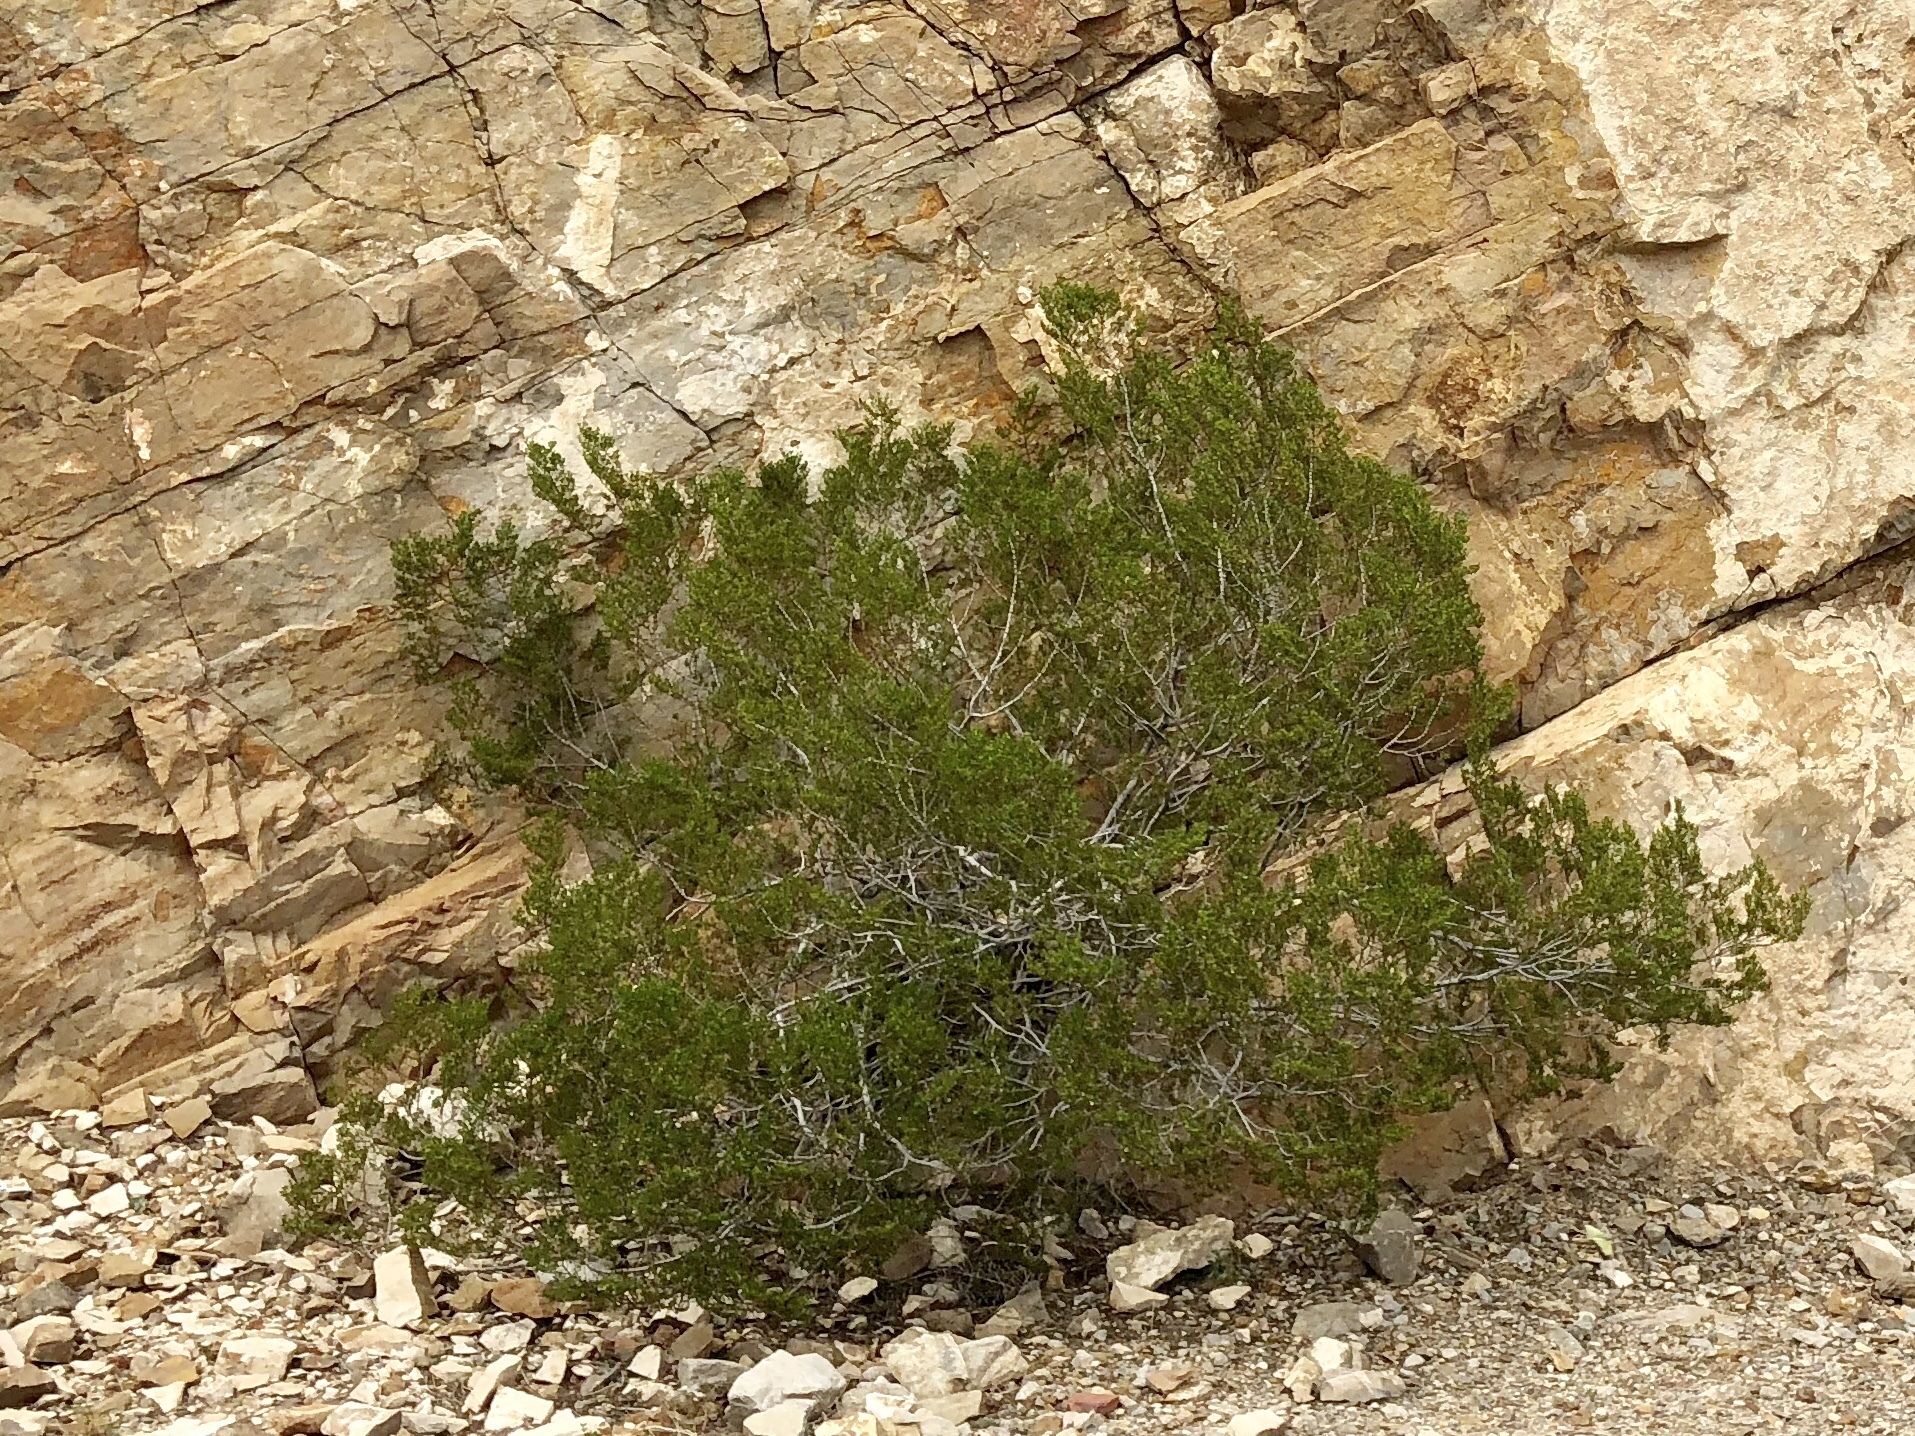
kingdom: Plantae
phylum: Tracheophyta
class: Magnoliopsida
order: Zygophyllales
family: Zygophyllaceae
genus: Larrea
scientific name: Larrea tridentata
